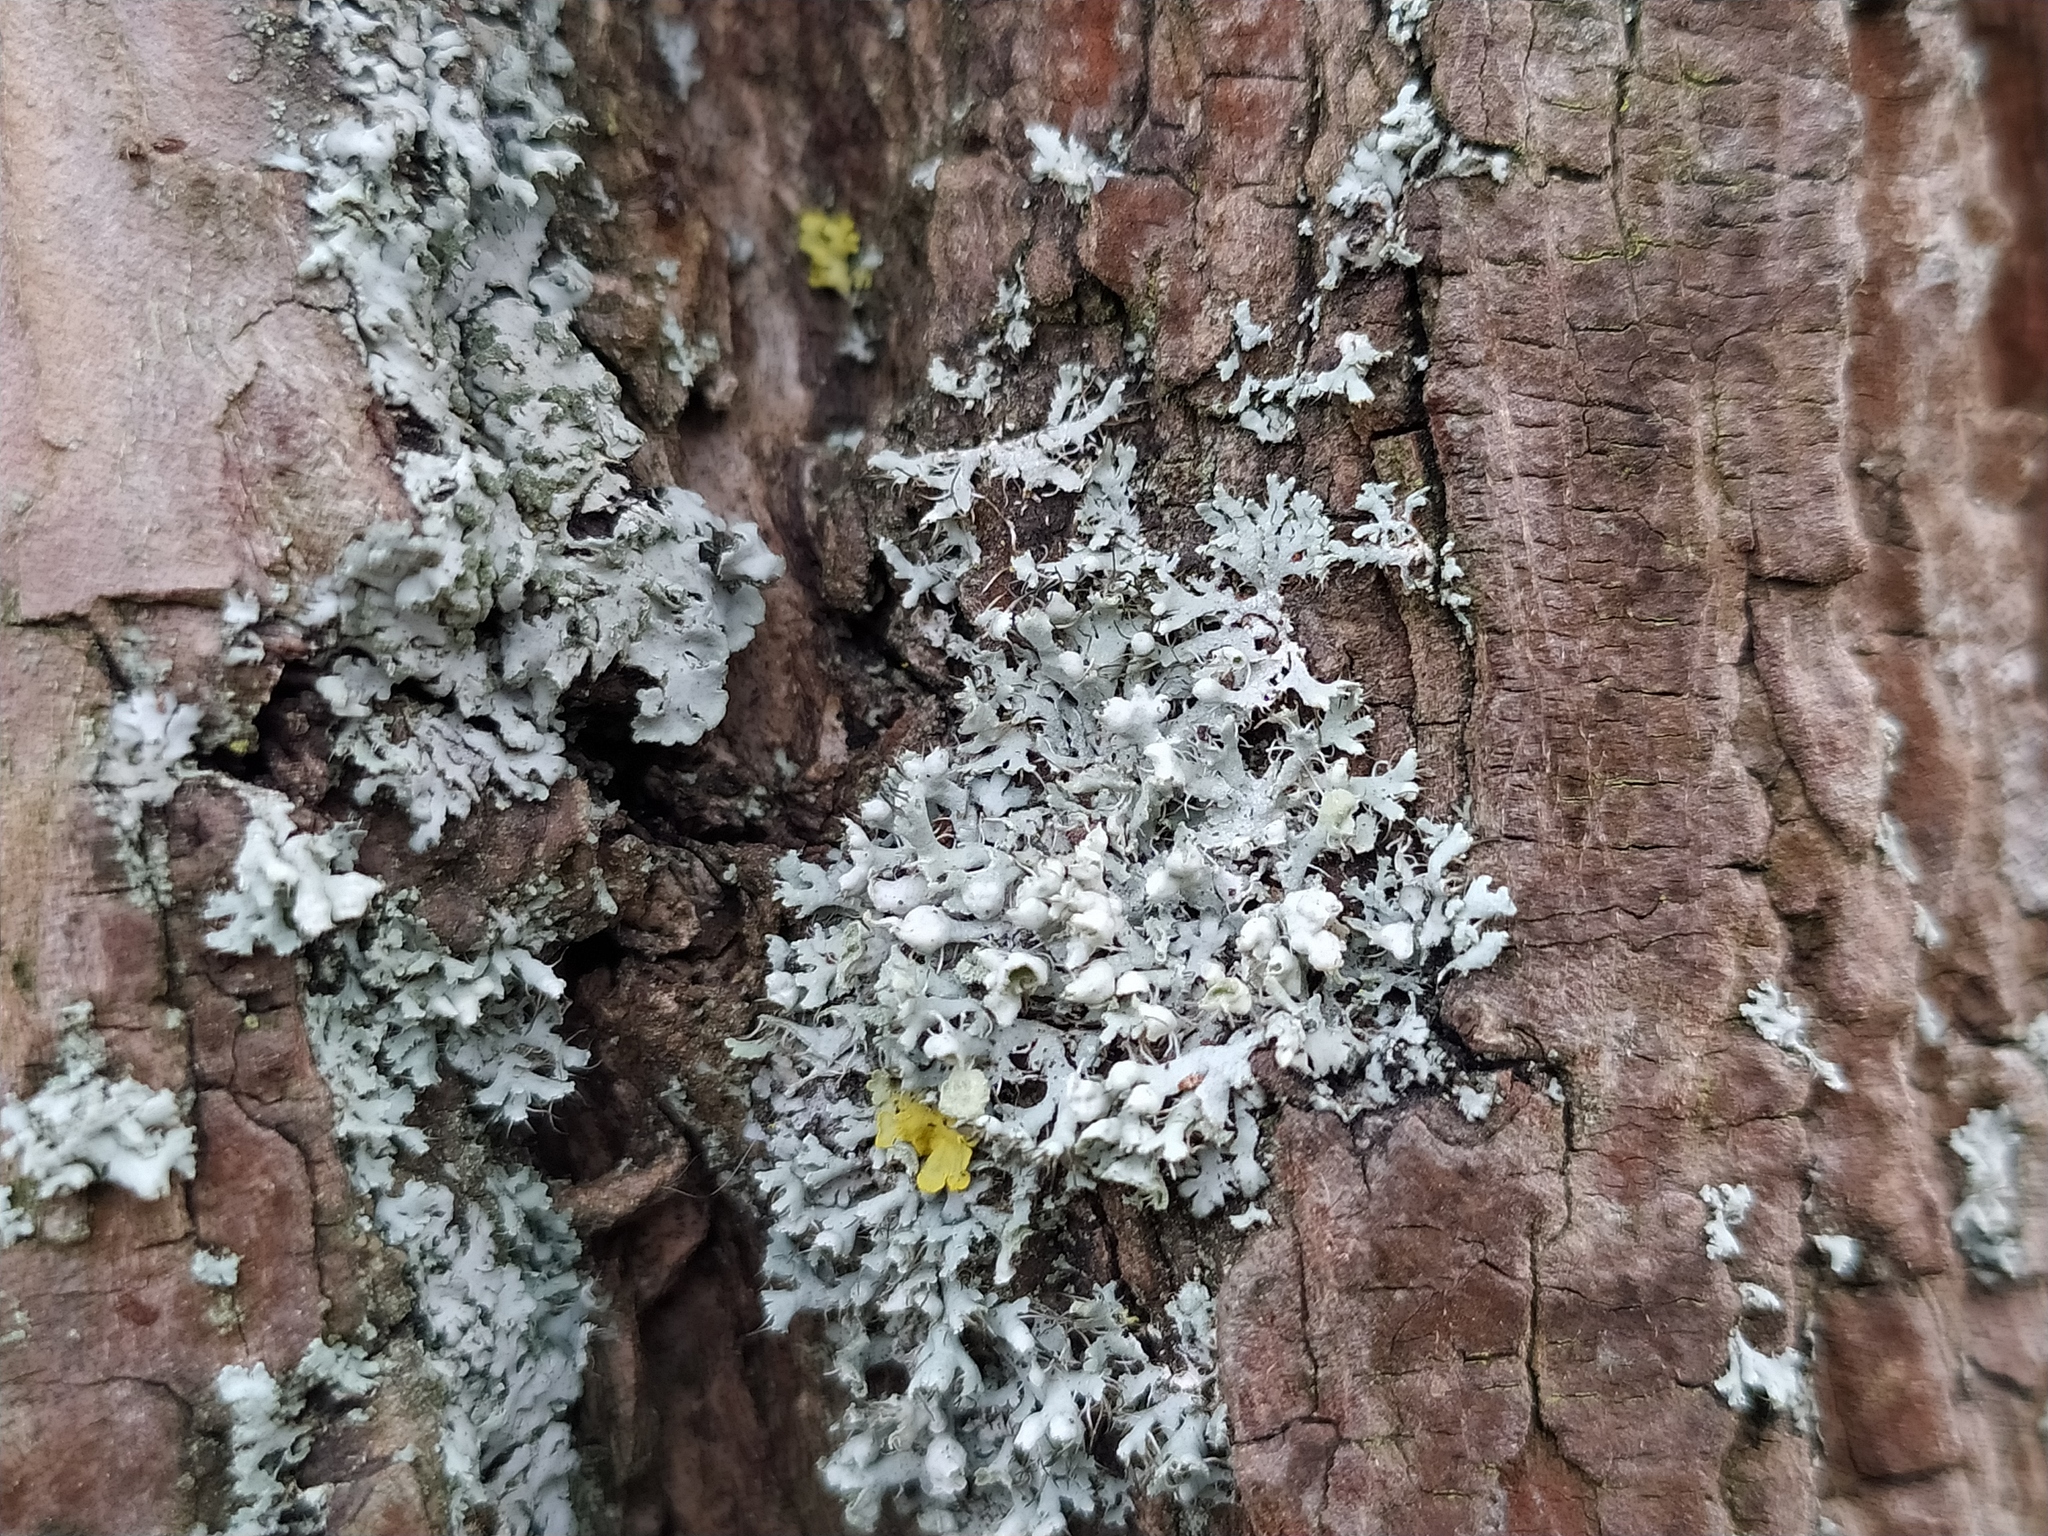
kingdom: Fungi
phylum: Ascomycota
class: Lecanoromycetes
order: Caliciales
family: Physciaceae
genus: Physcia
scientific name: Physcia adscendens
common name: Hooded rosette lichen
